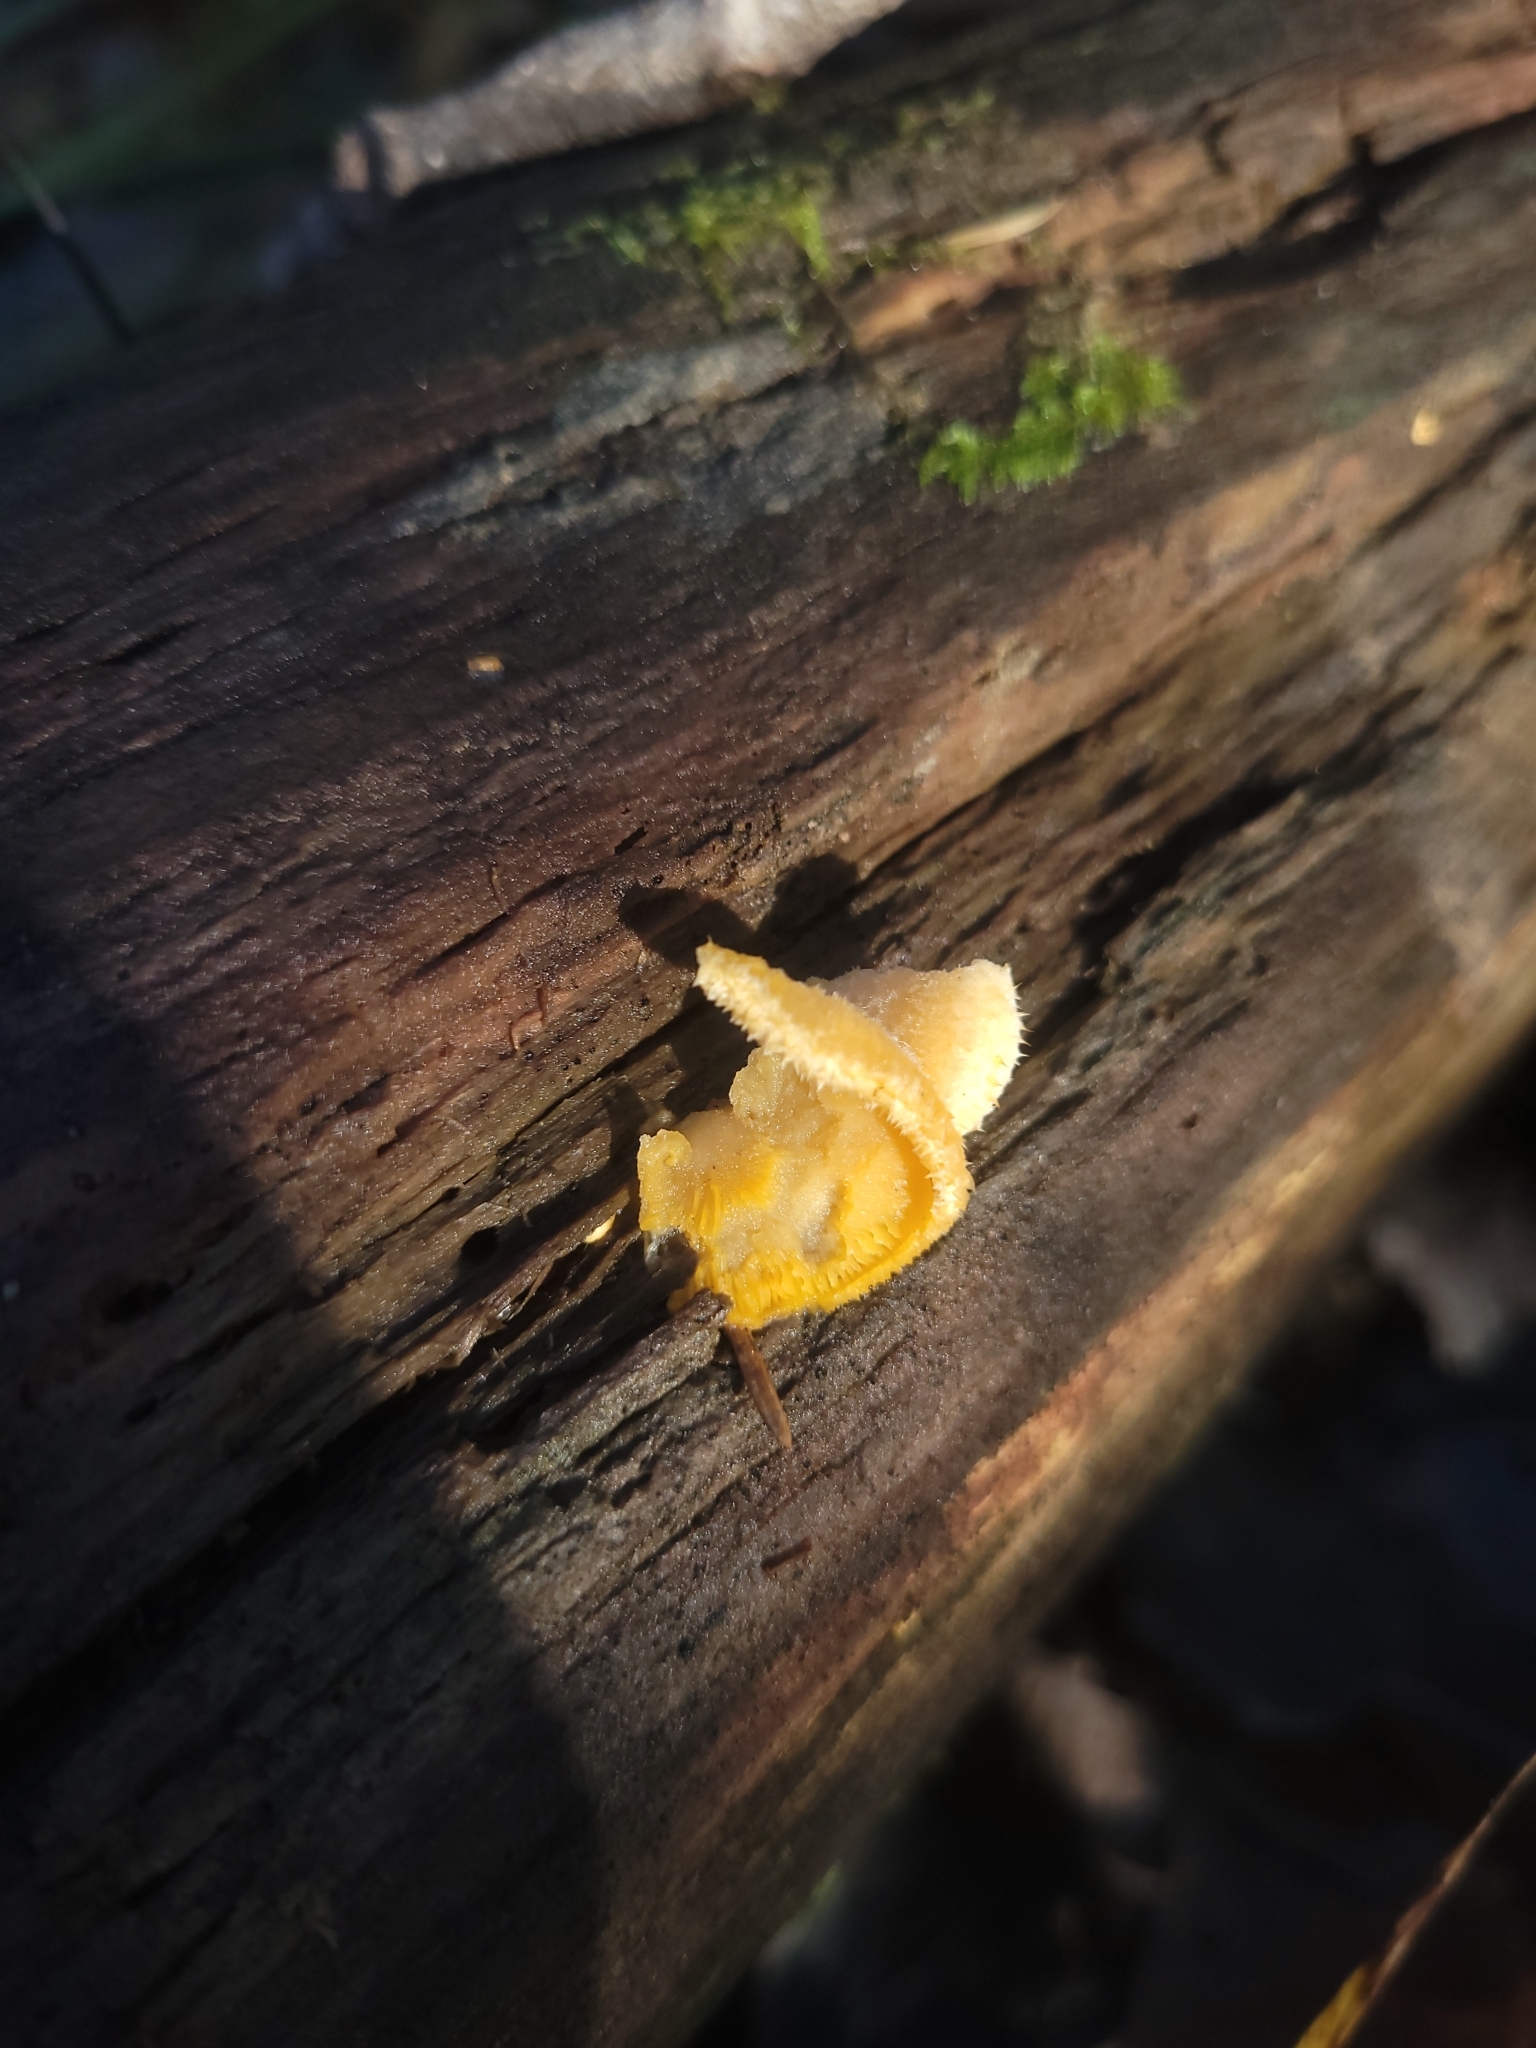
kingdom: Fungi
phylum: Basidiomycota
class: Agaricomycetes
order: Agaricales
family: Phyllotopsidaceae
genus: Phyllotopsis
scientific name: Phyllotopsis nidulans
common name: Orange mock oyster
